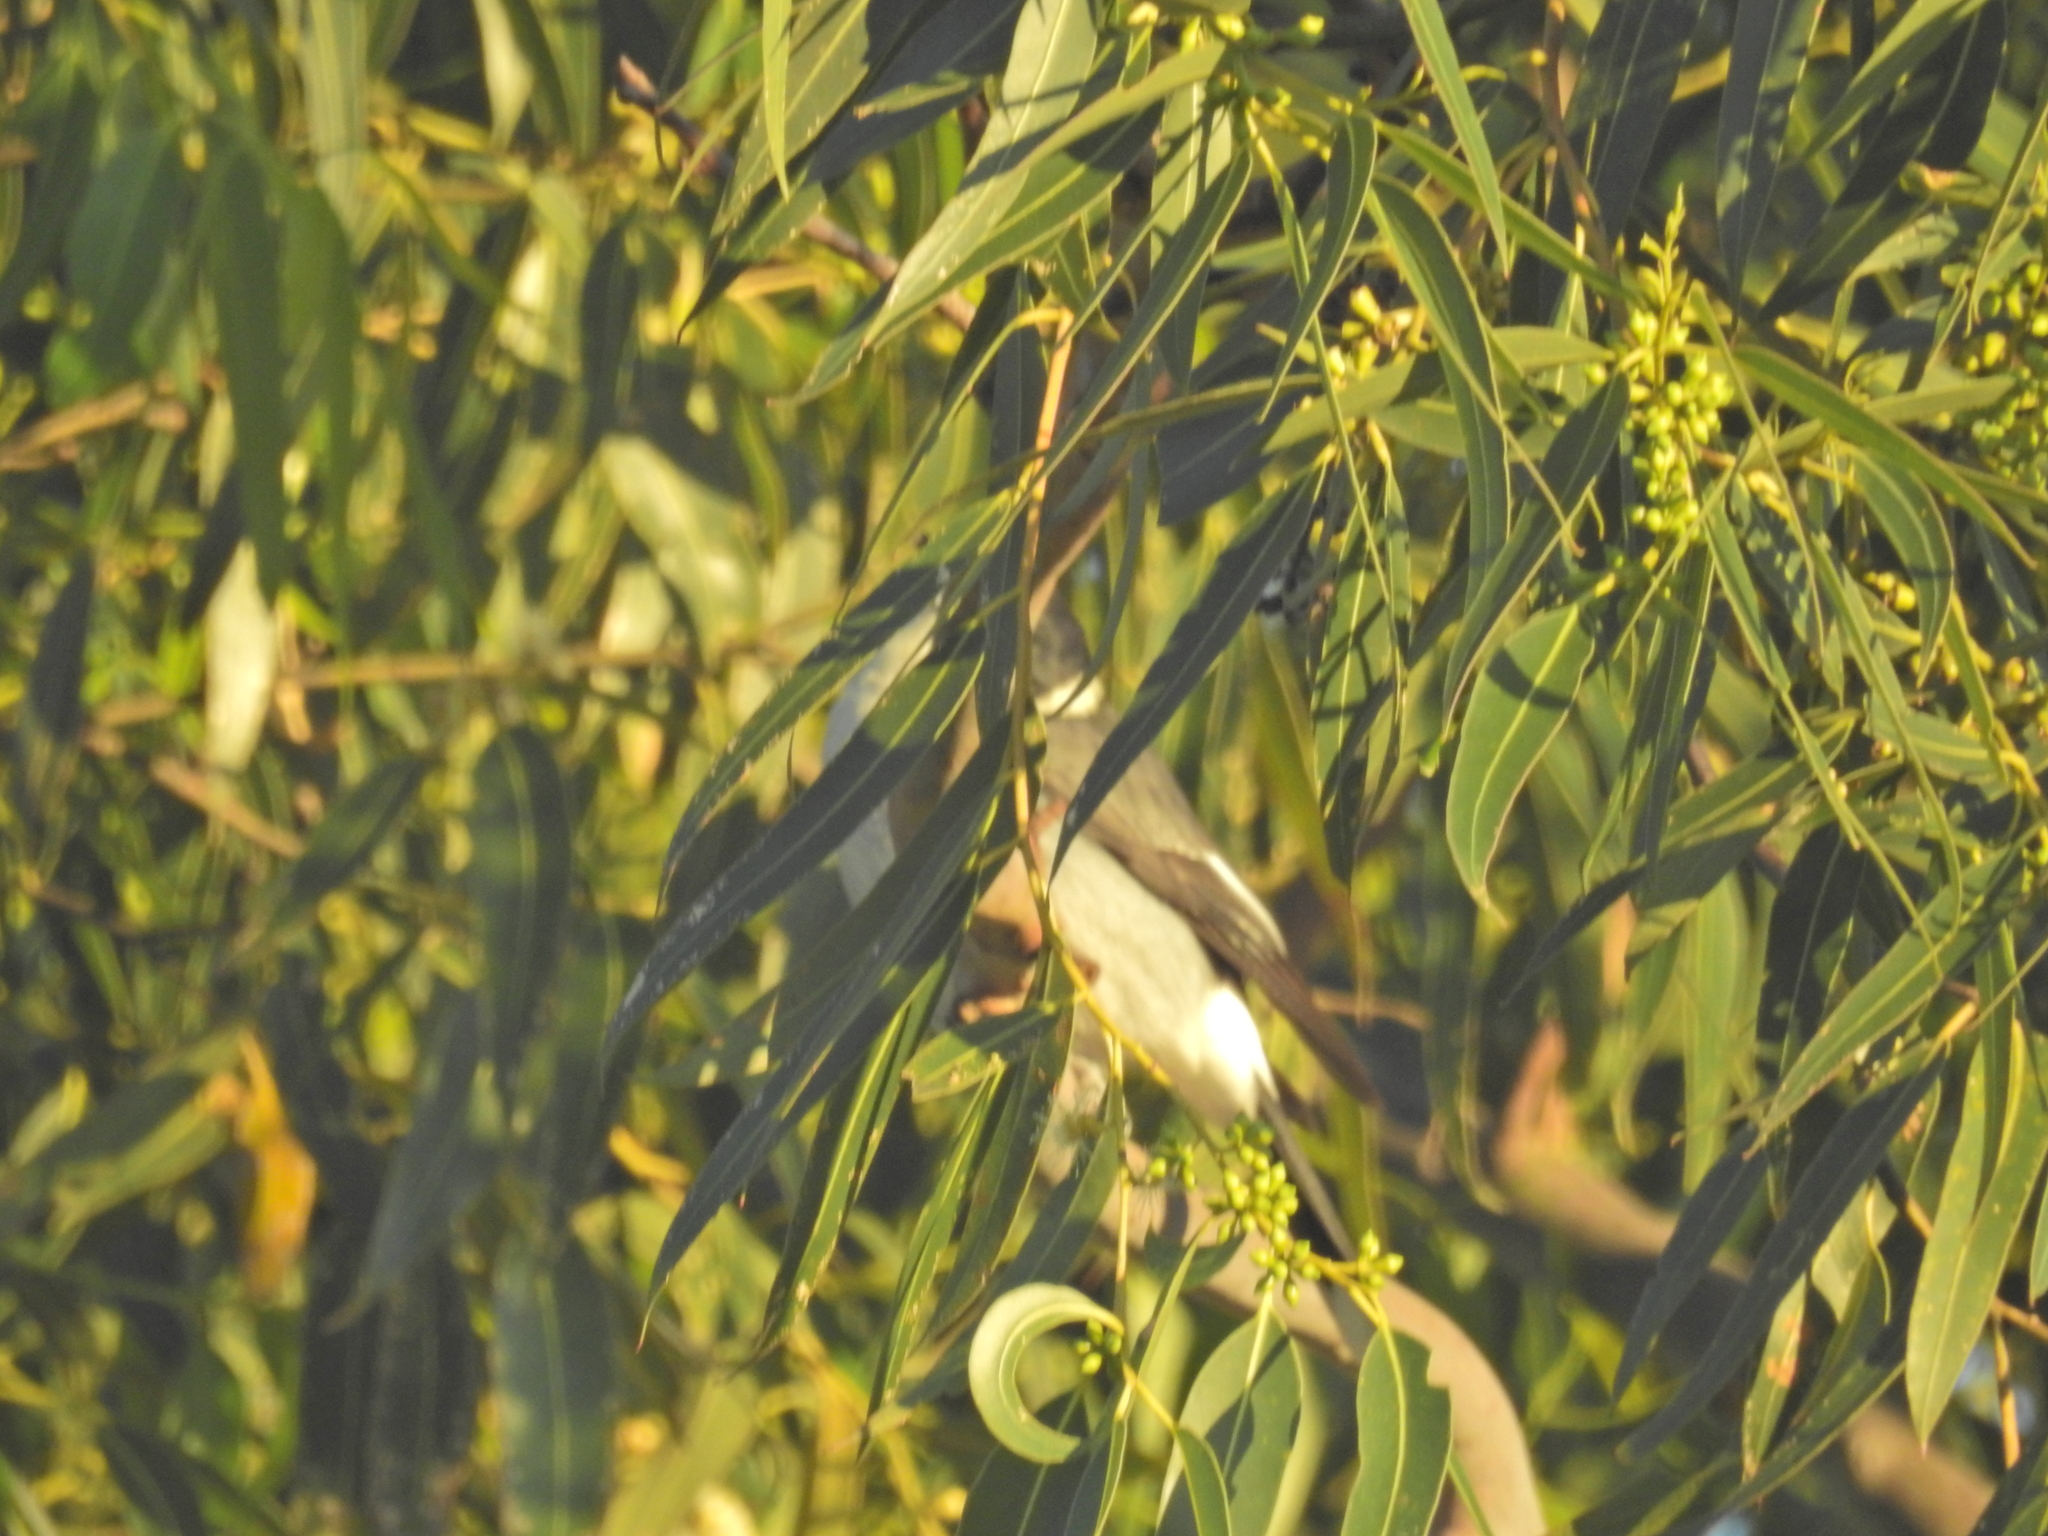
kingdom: Animalia
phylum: Chordata
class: Aves
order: Passeriformes
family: Cracticidae
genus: Cracticus
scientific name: Cracticus torquatus
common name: Grey butcherbird
